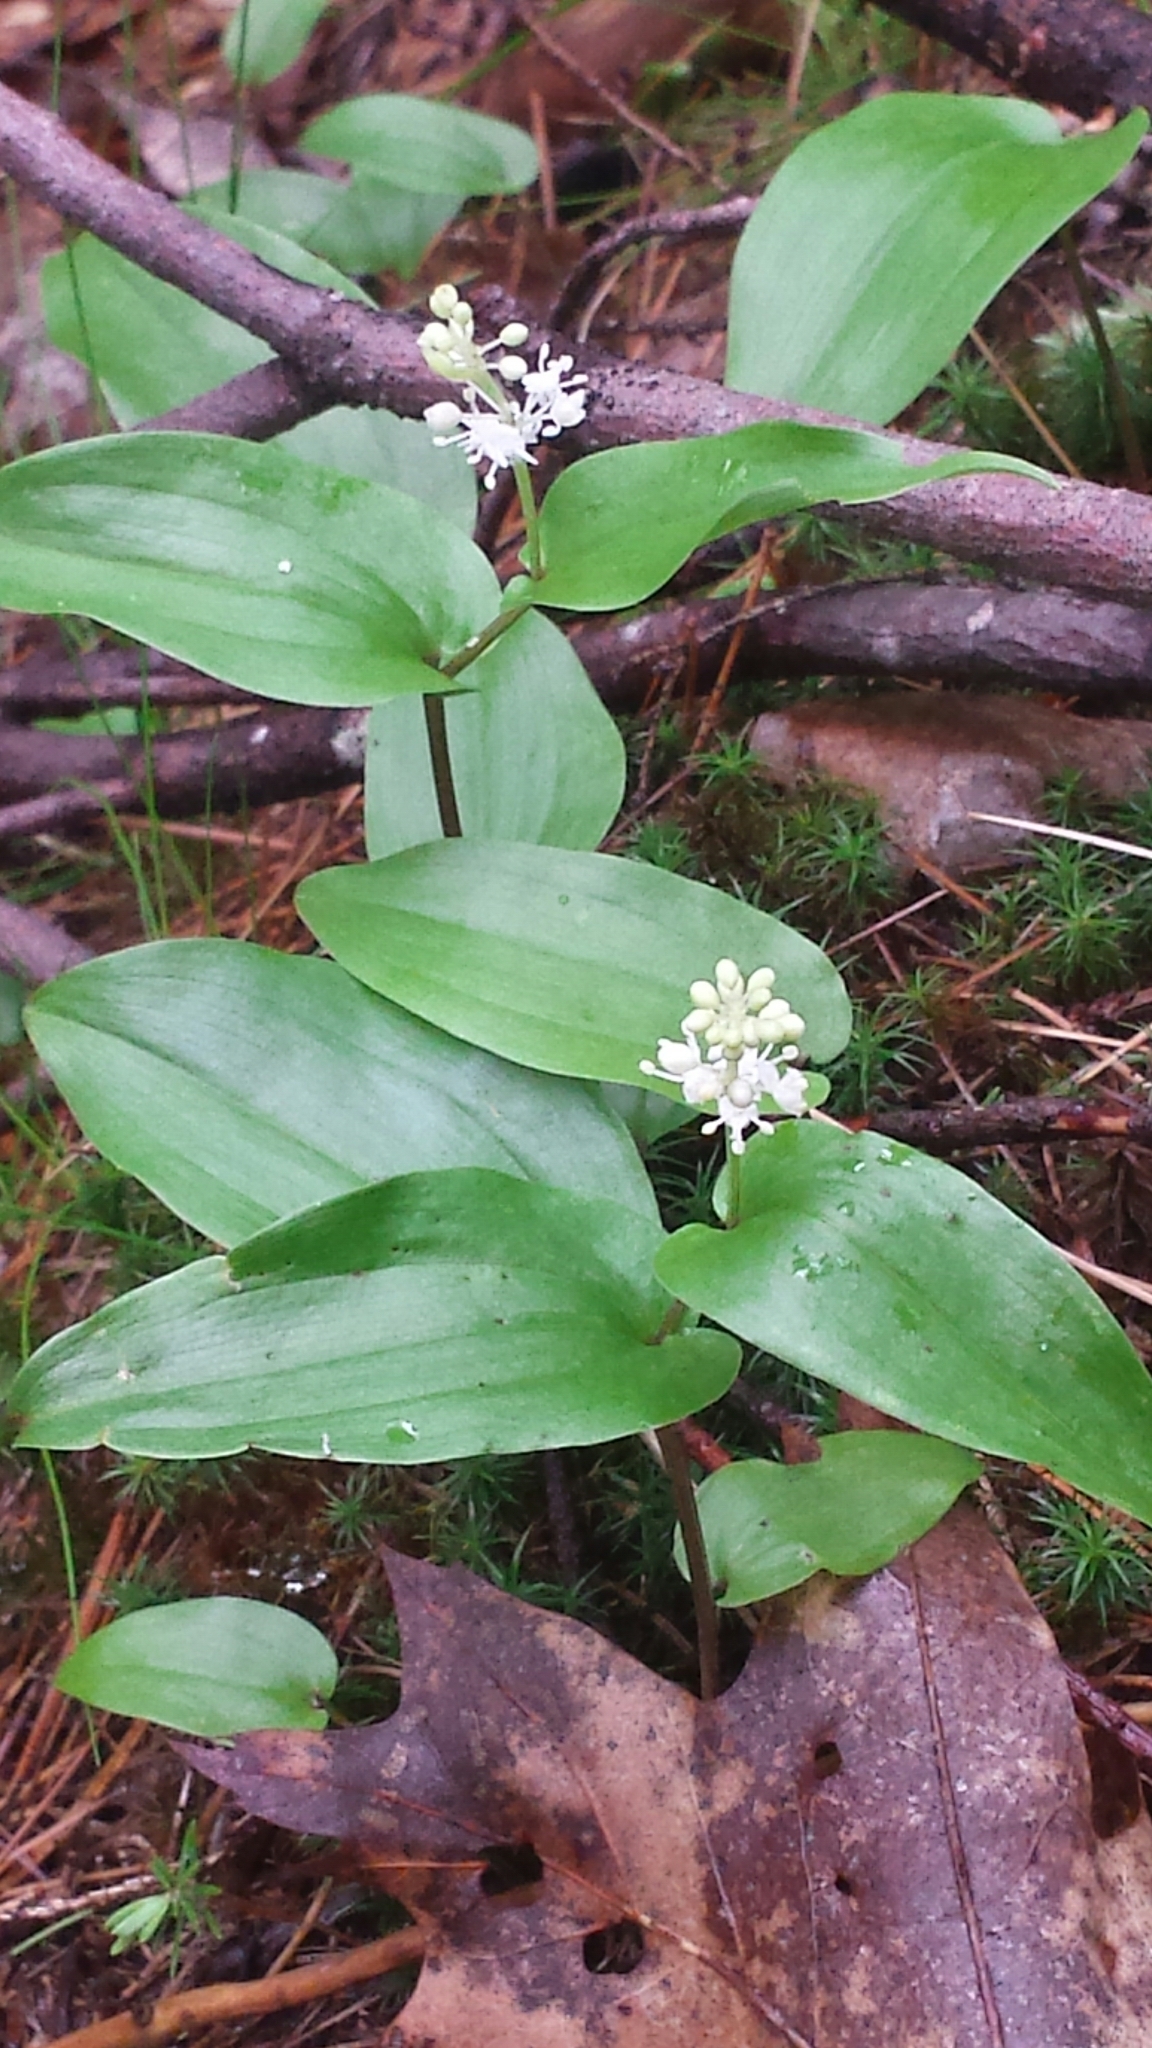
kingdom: Plantae
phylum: Tracheophyta
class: Liliopsida
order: Asparagales
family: Asparagaceae
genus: Maianthemum
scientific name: Maianthemum canadense
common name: False lily-of-the-valley
